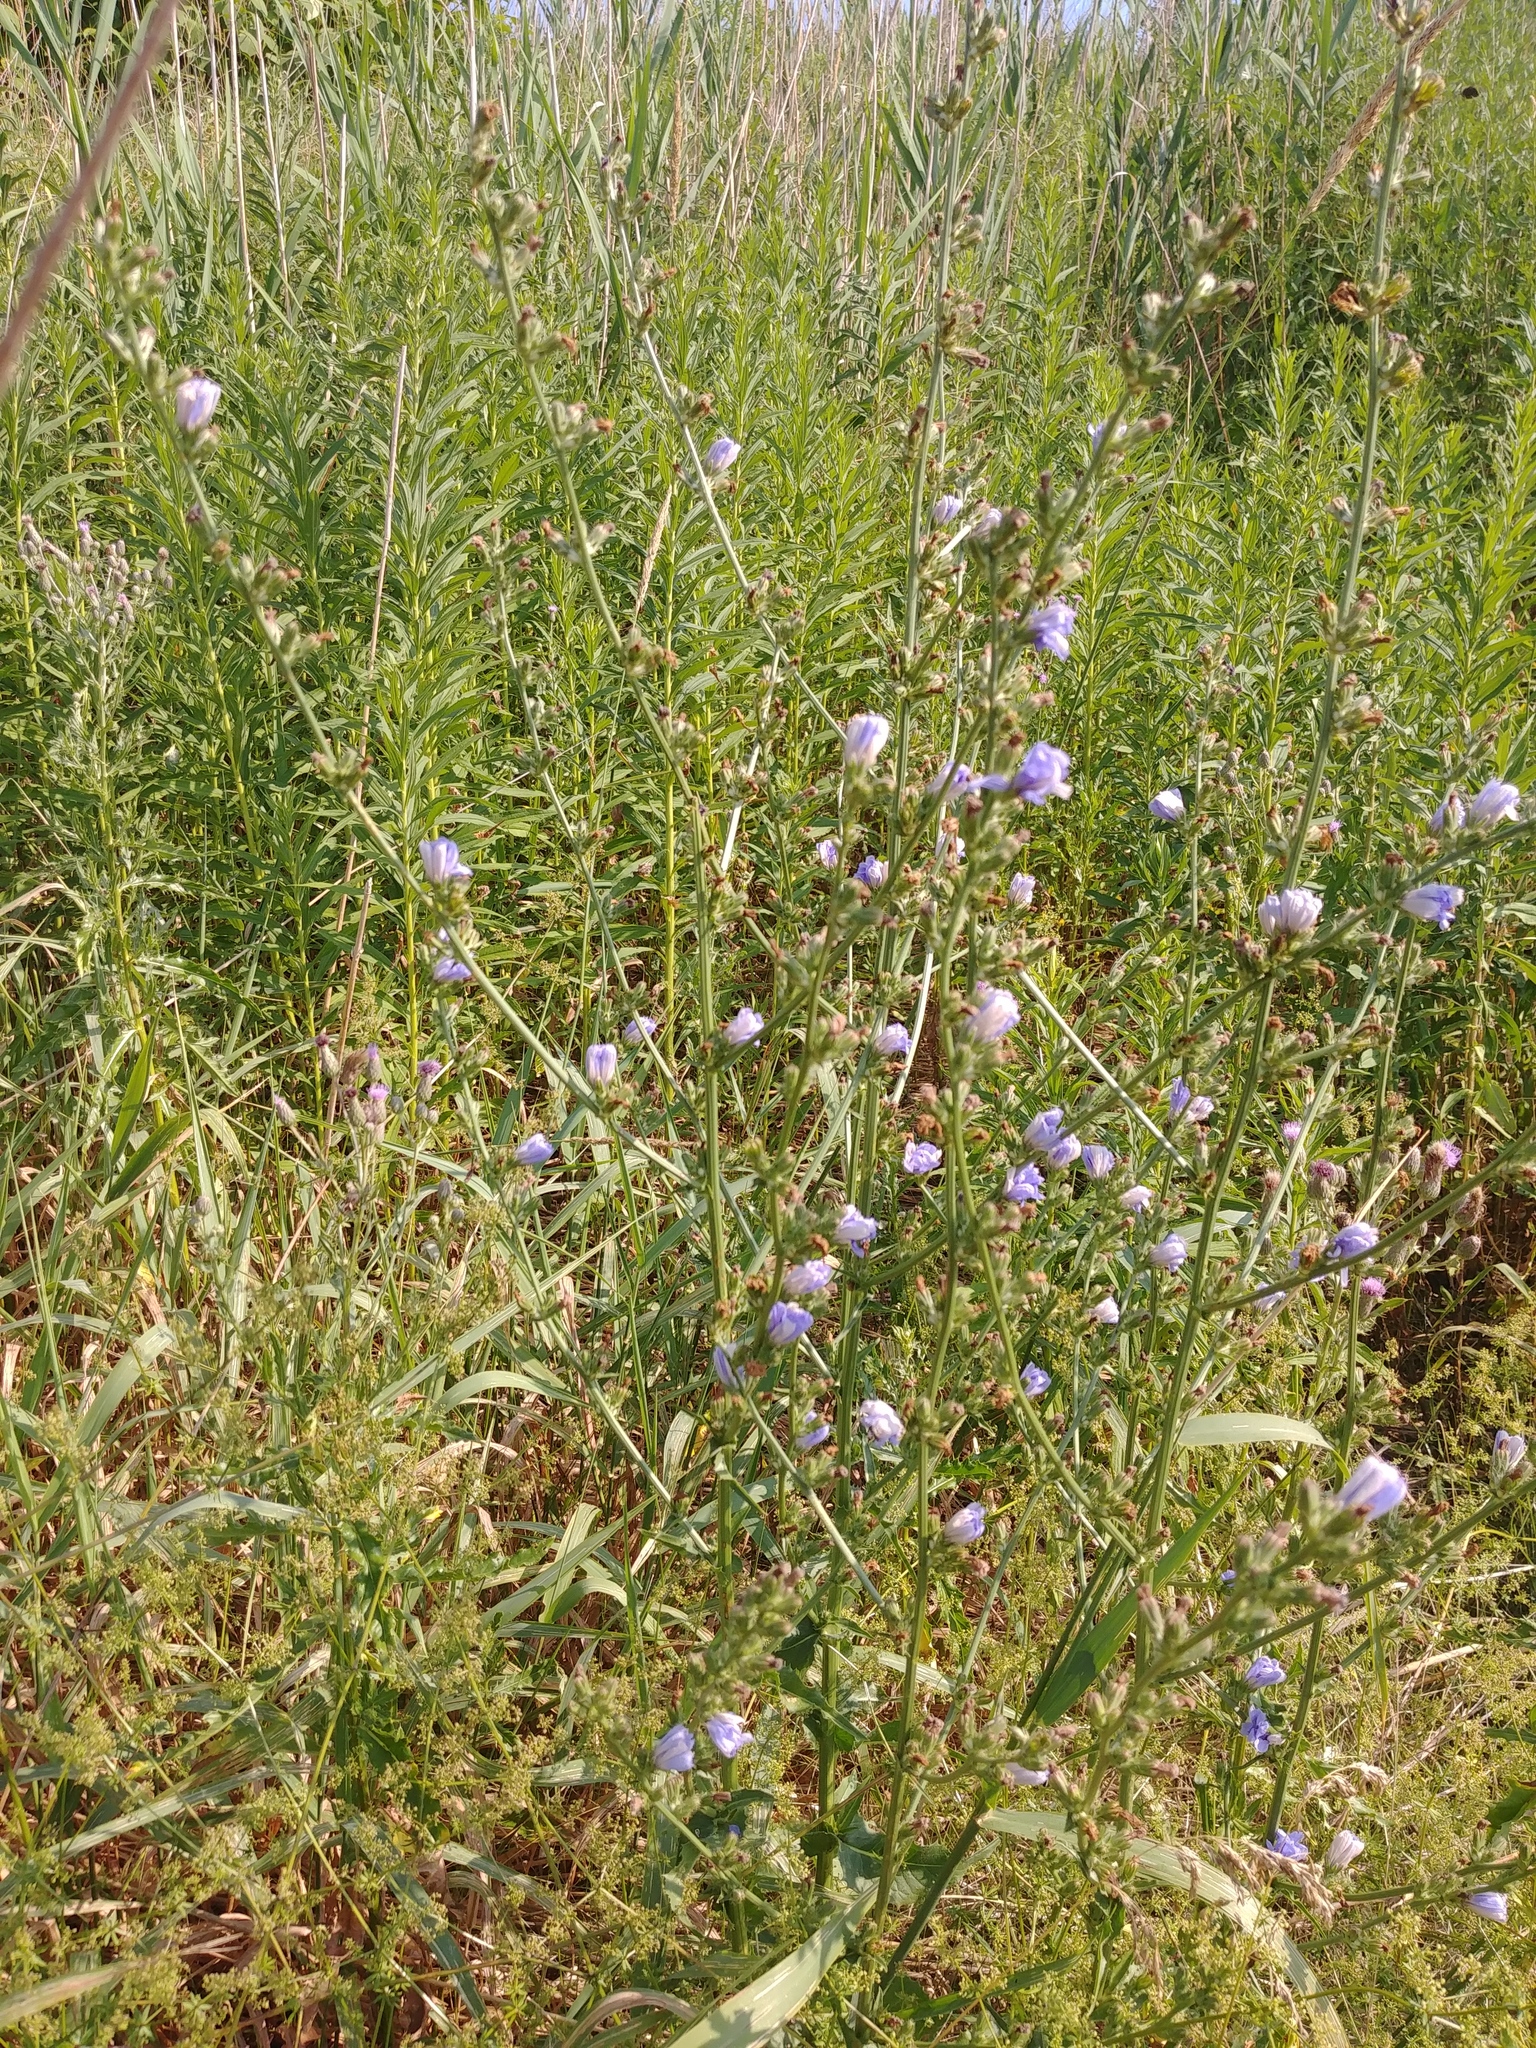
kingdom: Plantae
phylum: Tracheophyta
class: Magnoliopsida
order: Asterales
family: Asteraceae
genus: Cichorium
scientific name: Cichorium intybus
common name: Chicory
